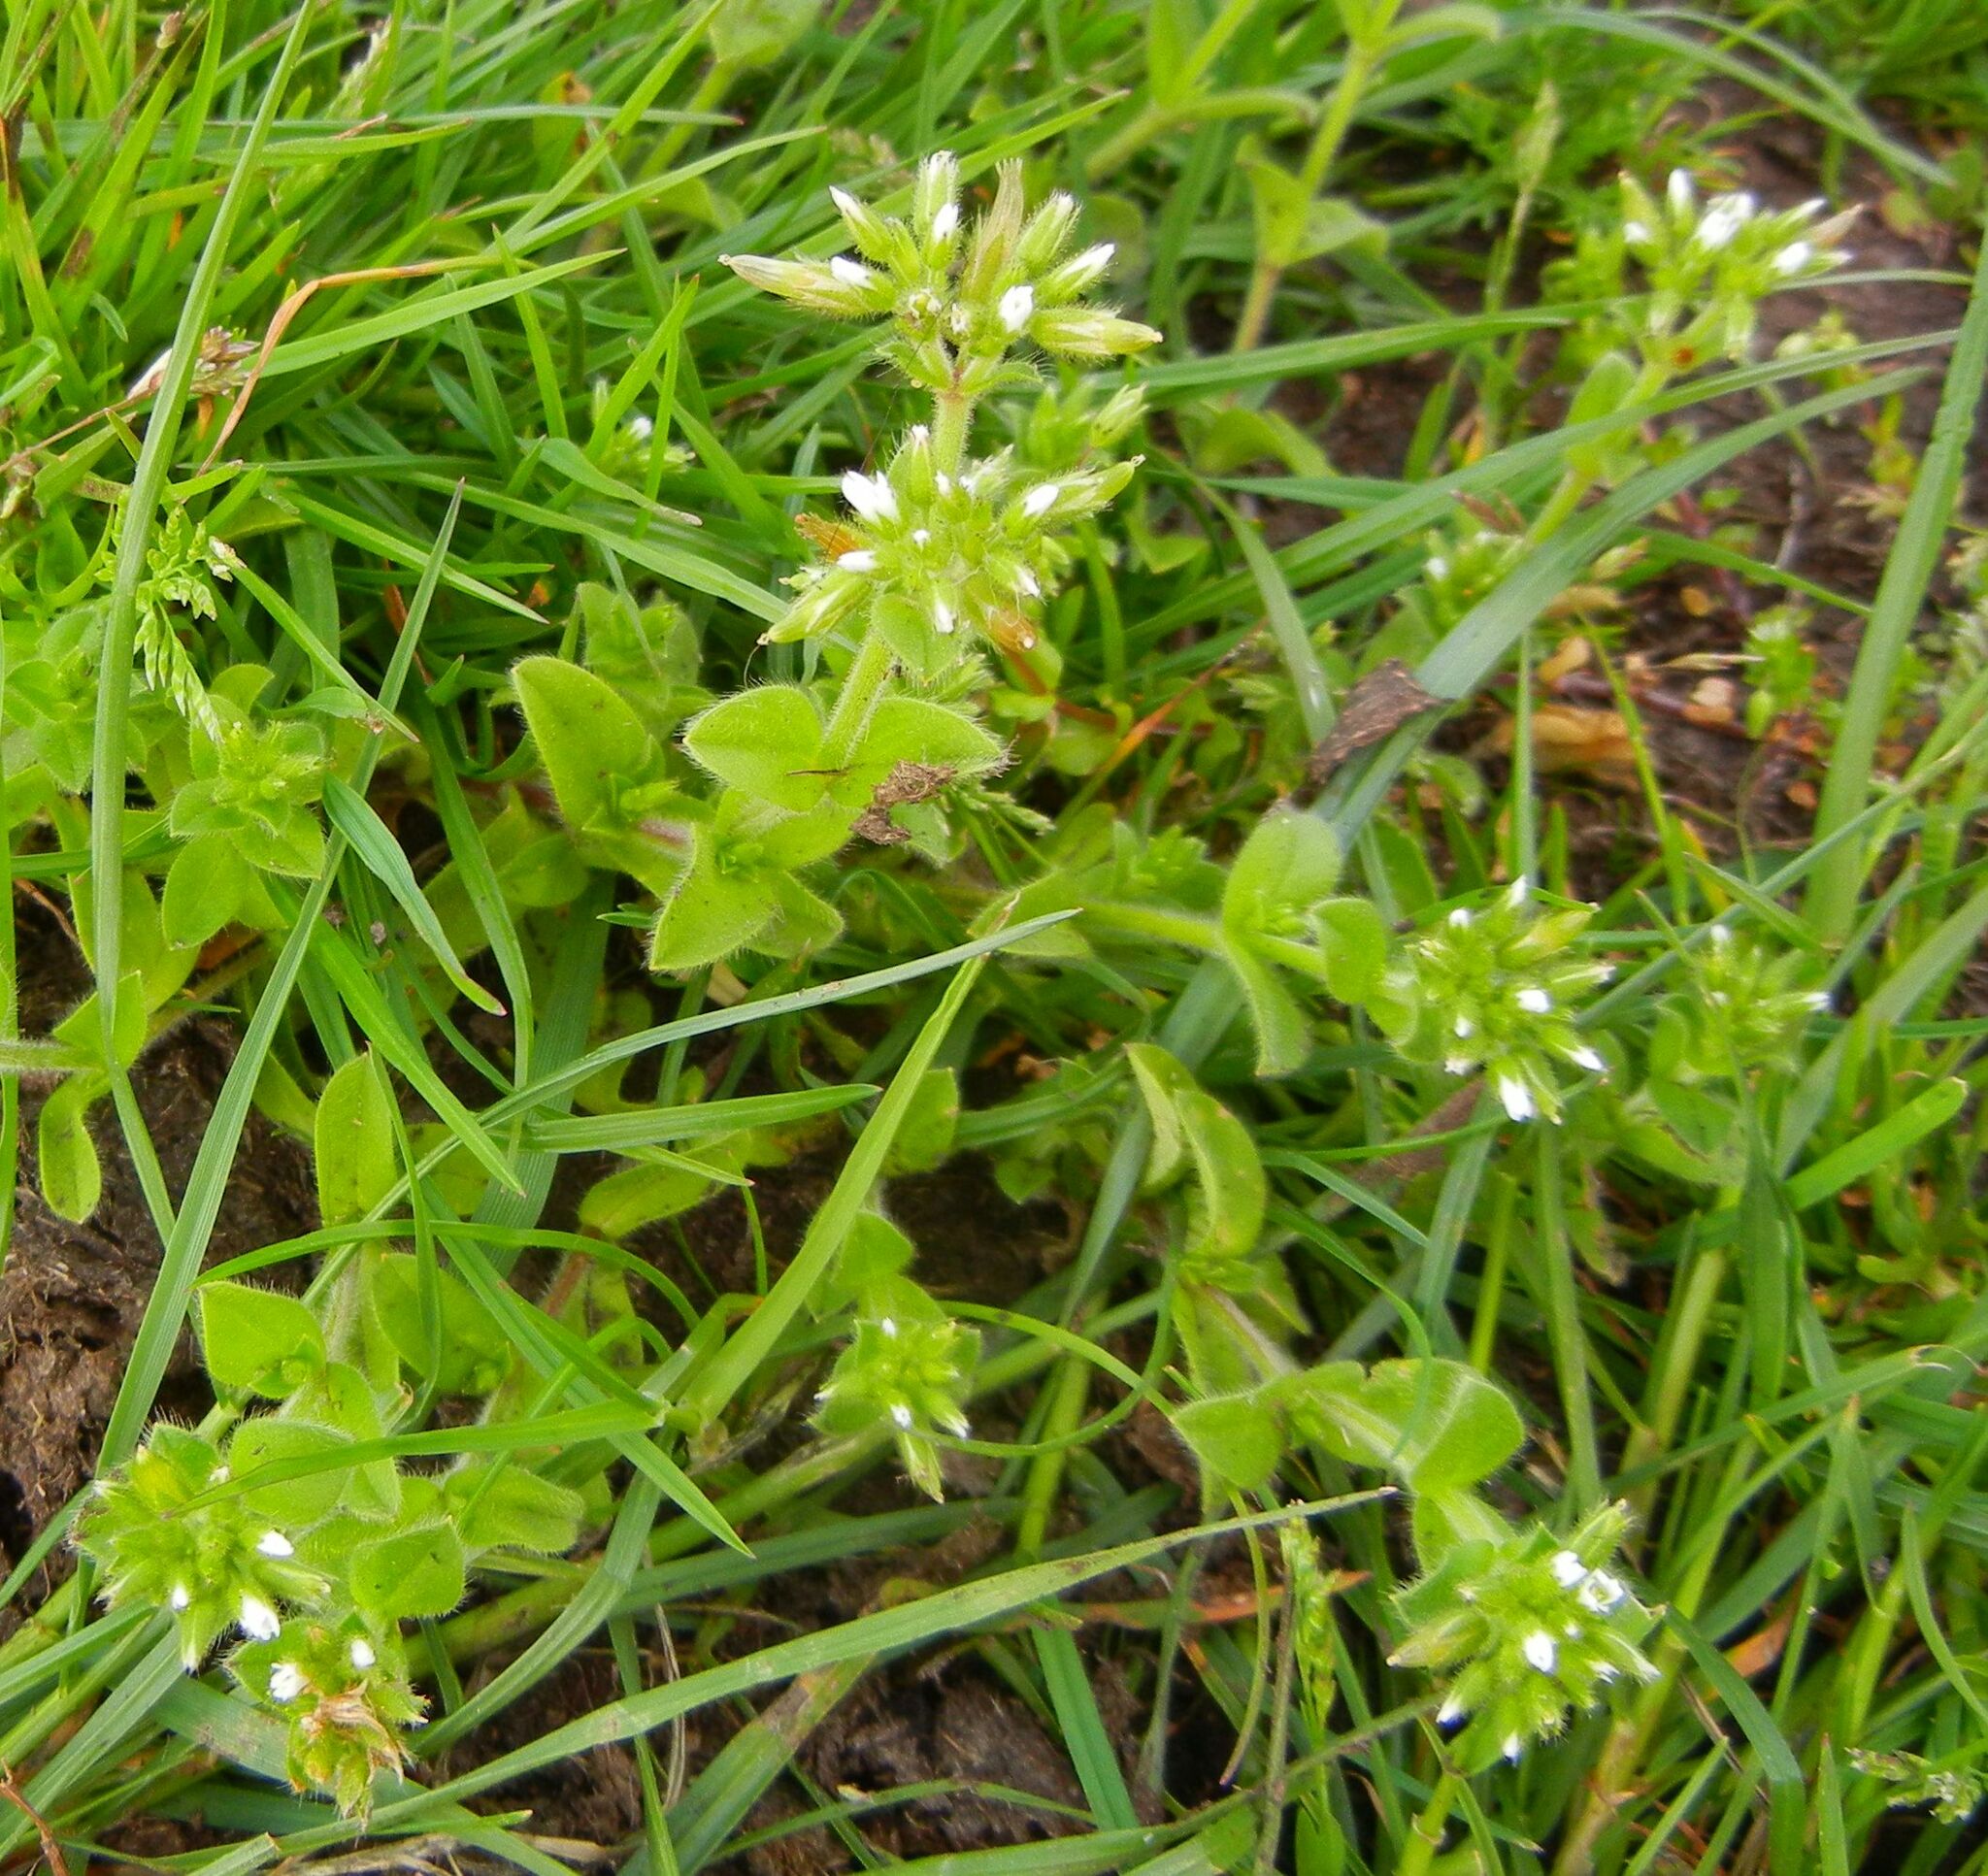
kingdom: Plantae
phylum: Tracheophyta
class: Magnoliopsida
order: Caryophyllales
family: Caryophyllaceae
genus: Cerastium
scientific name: Cerastium glomeratum
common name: Sticky chickweed
